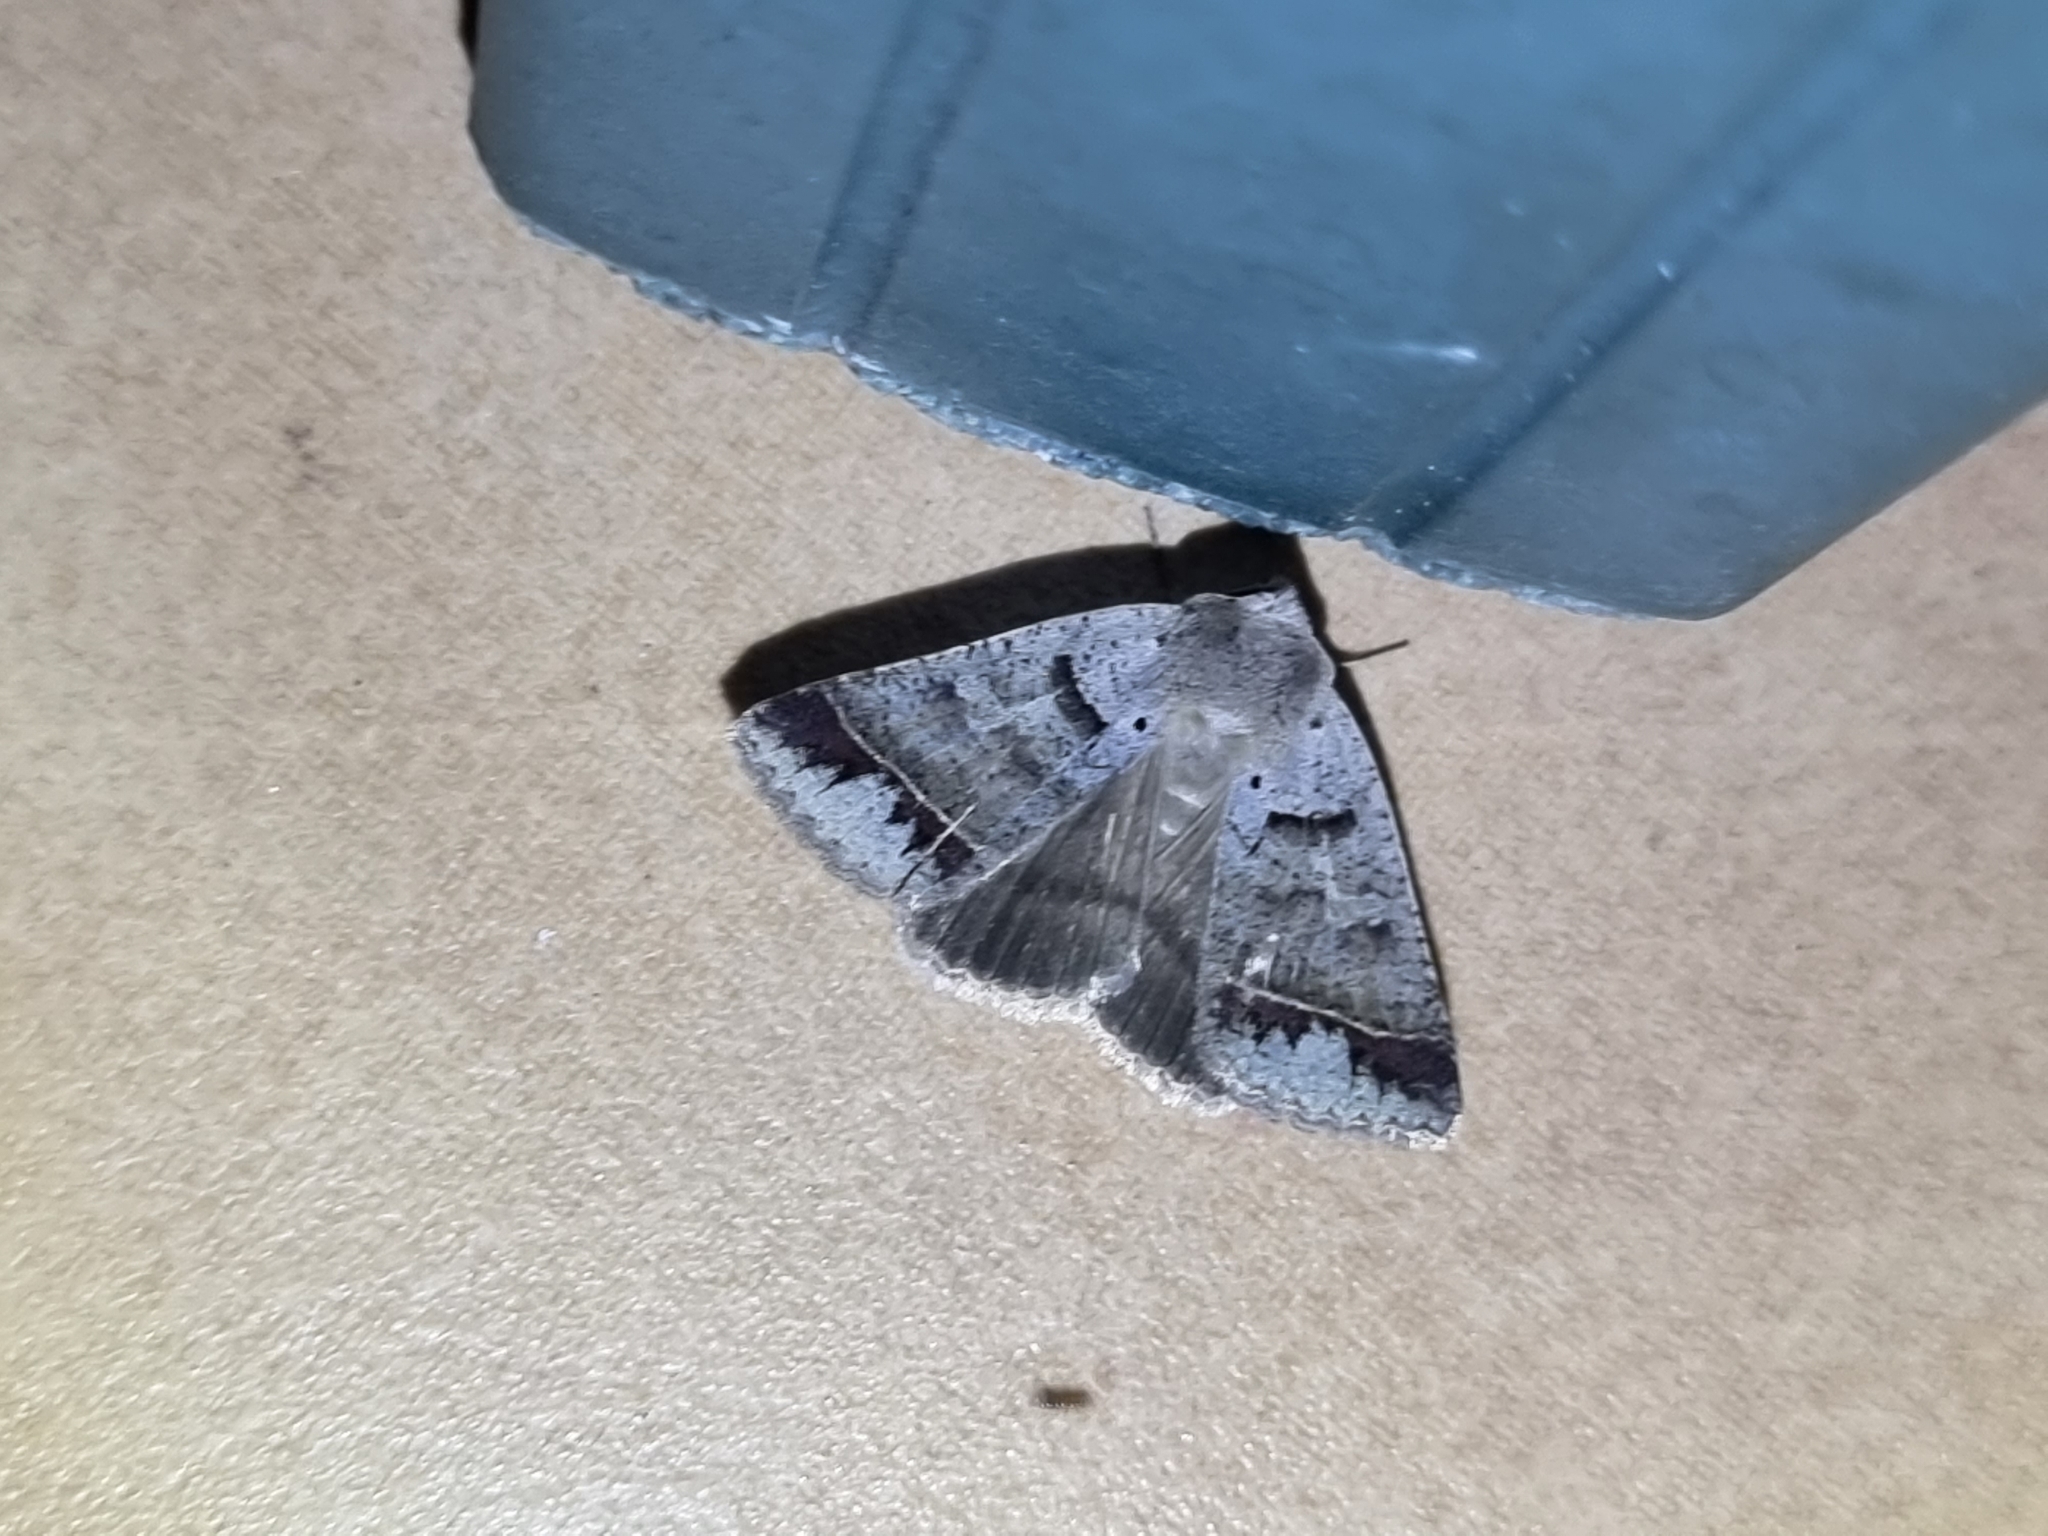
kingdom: Animalia
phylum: Arthropoda
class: Insecta
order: Lepidoptera
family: Erebidae
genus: Pantydia
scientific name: Pantydia sparsa
